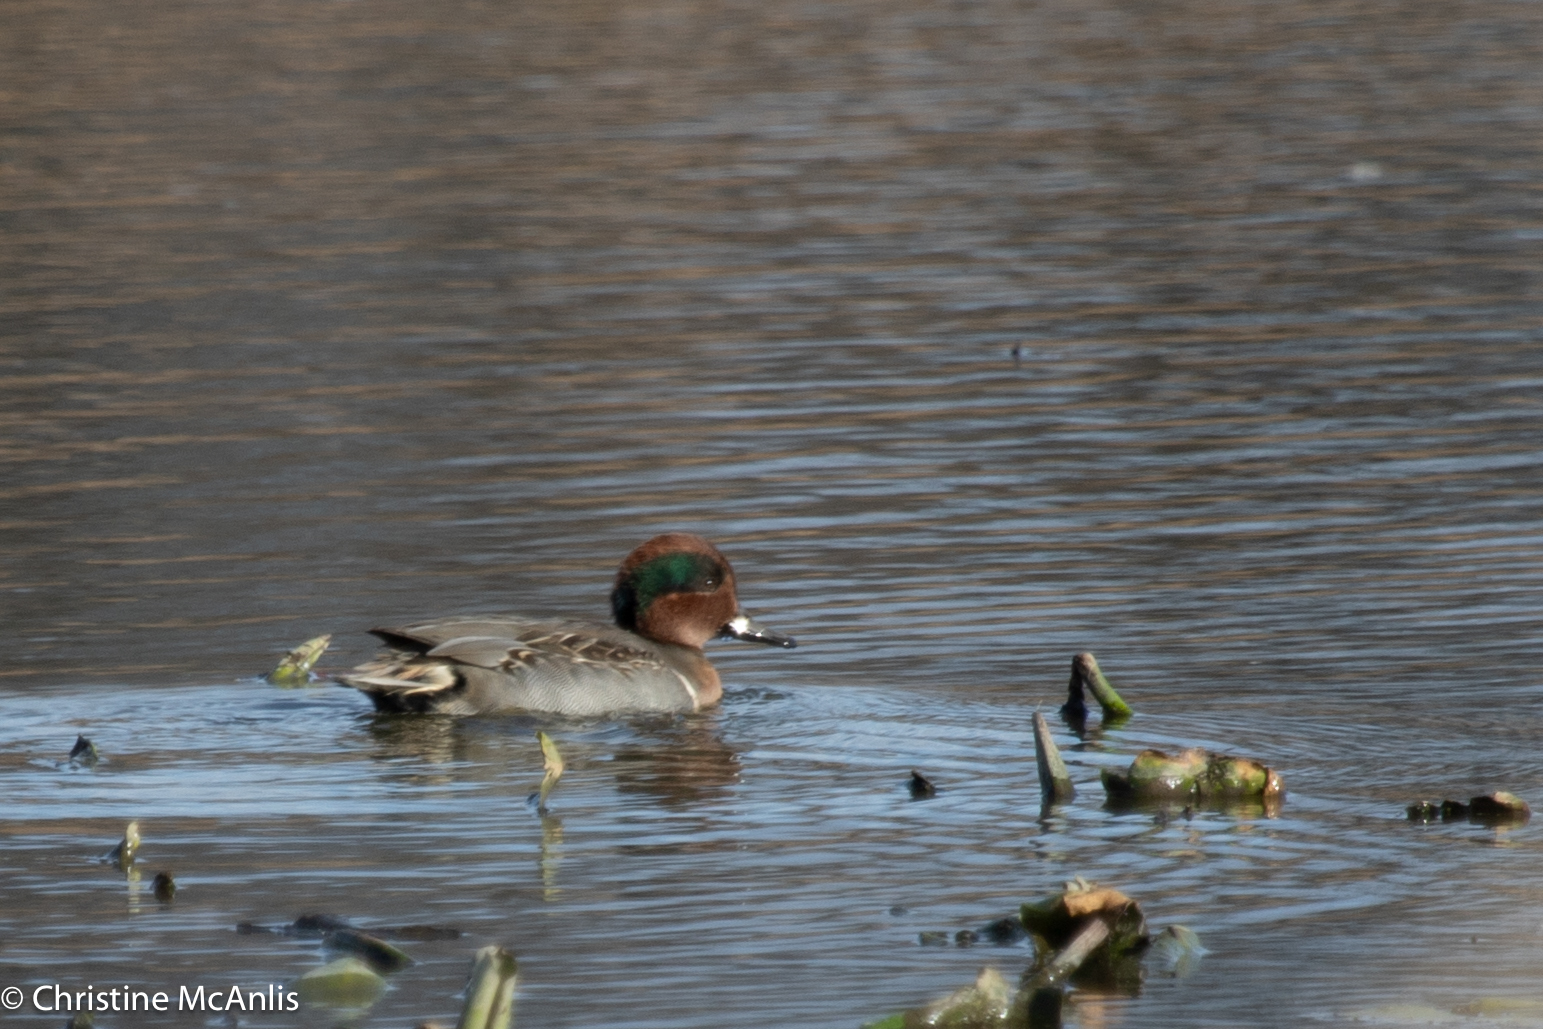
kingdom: Animalia
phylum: Chordata
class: Aves
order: Anseriformes
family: Anatidae
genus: Anas
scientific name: Anas crecca
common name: Eurasian teal
